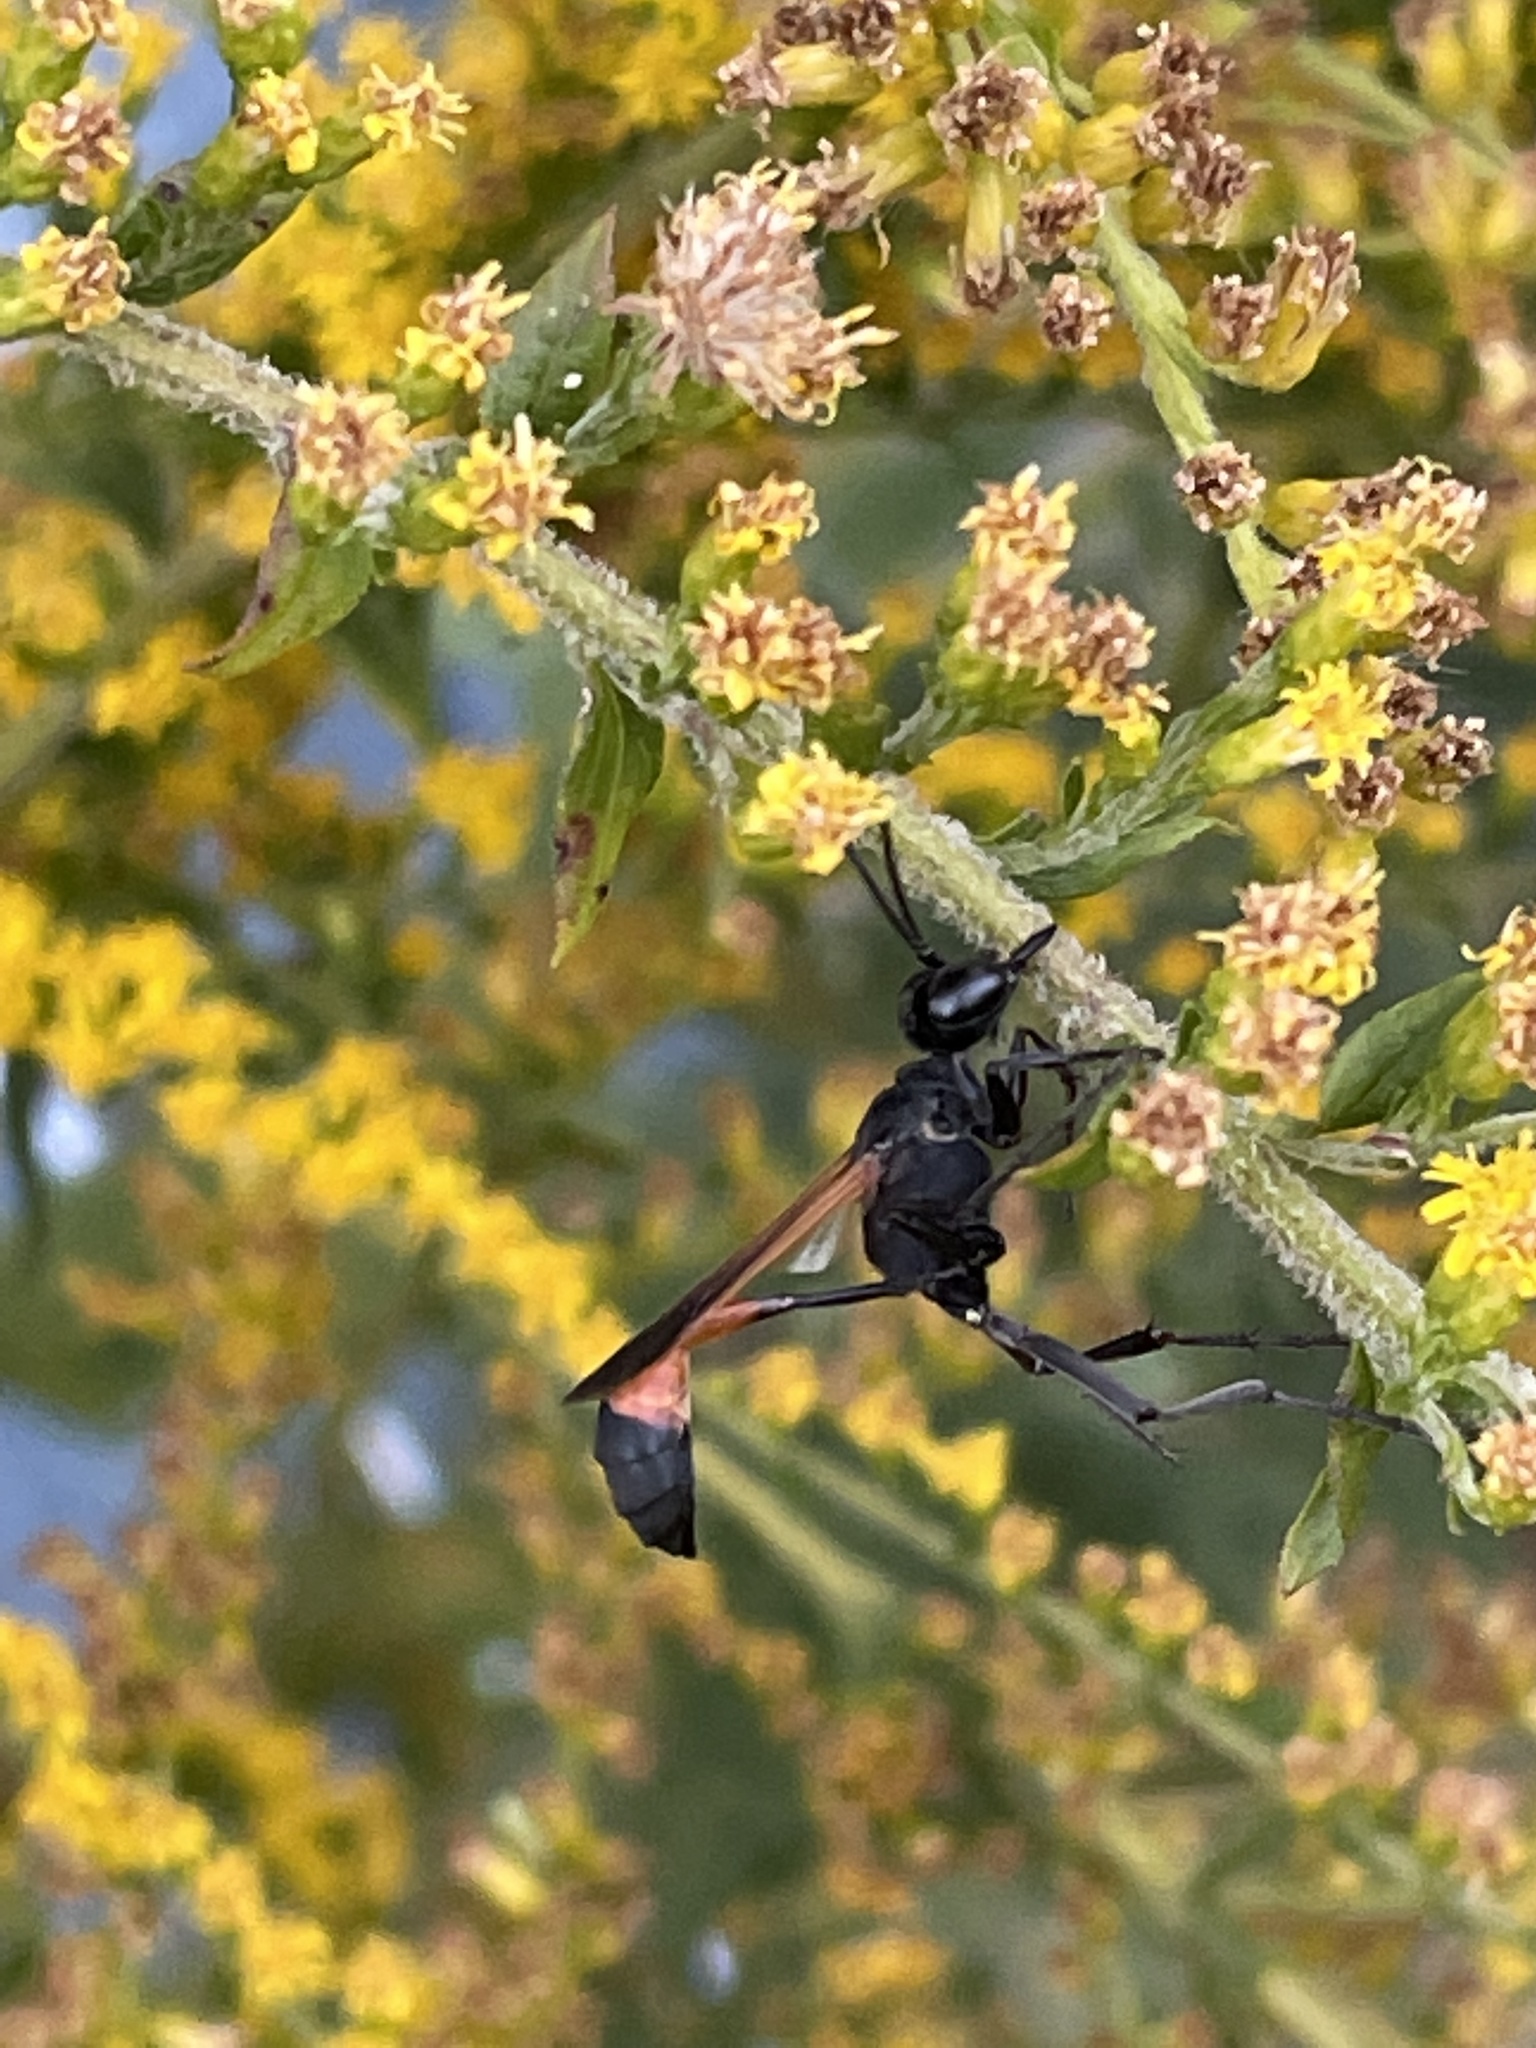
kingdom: Animalia
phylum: Arthropoda
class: Insecta
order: Hymenoptera
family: Sphecidae
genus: Ammophila
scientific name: Ammophila pictipennis
